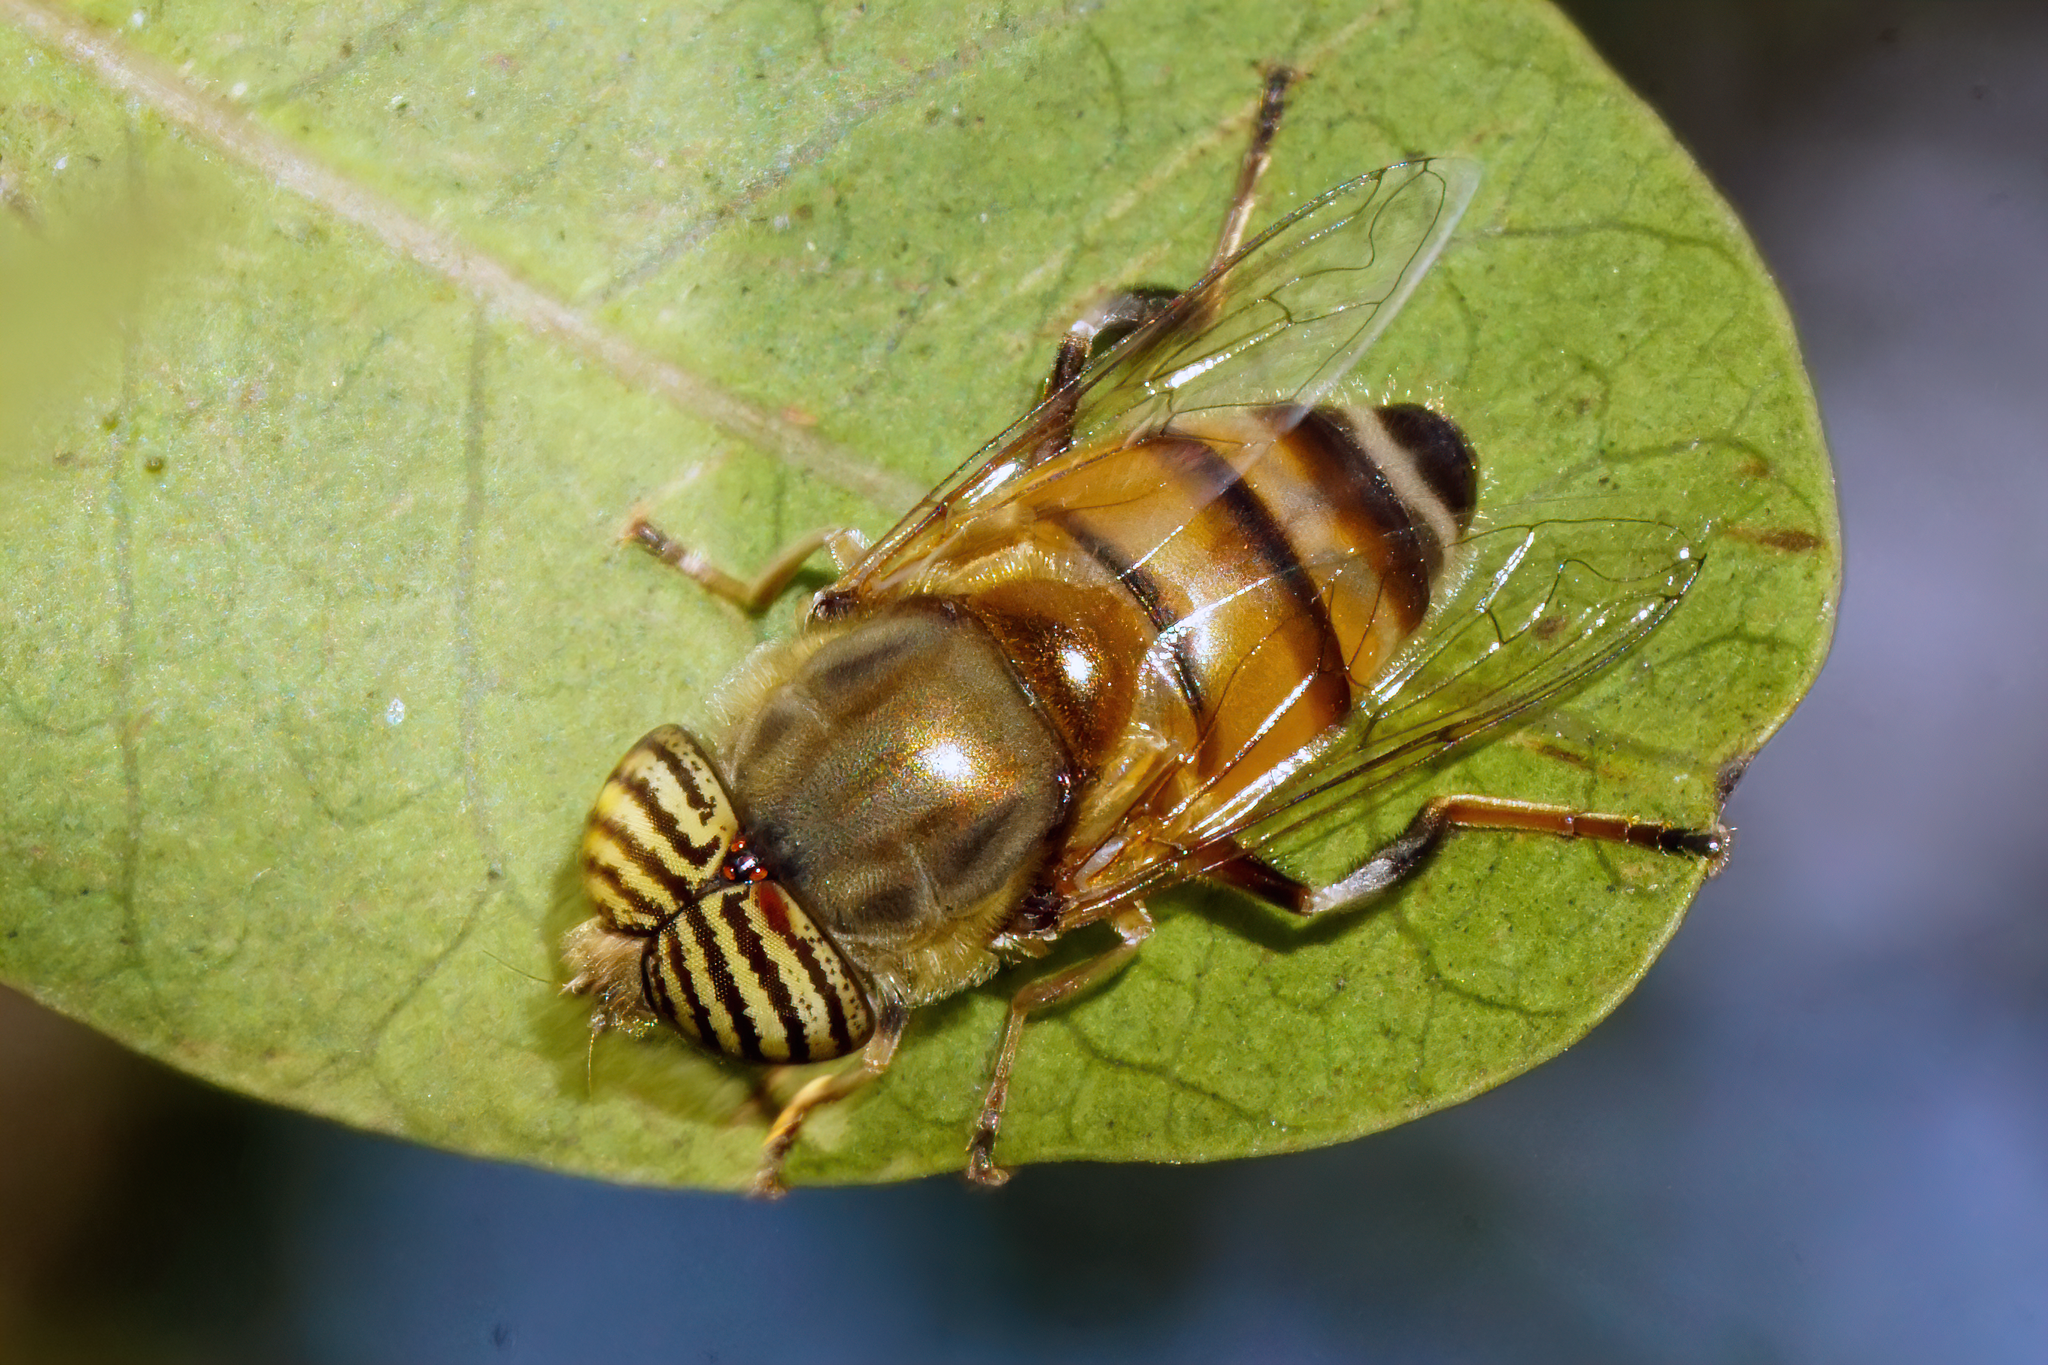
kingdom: Animalia
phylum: Arthropoda
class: Insecta
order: Diptera
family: Syrphidae
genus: Eristalinus
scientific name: Eristalinus taeniops
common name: Syrphid fly
